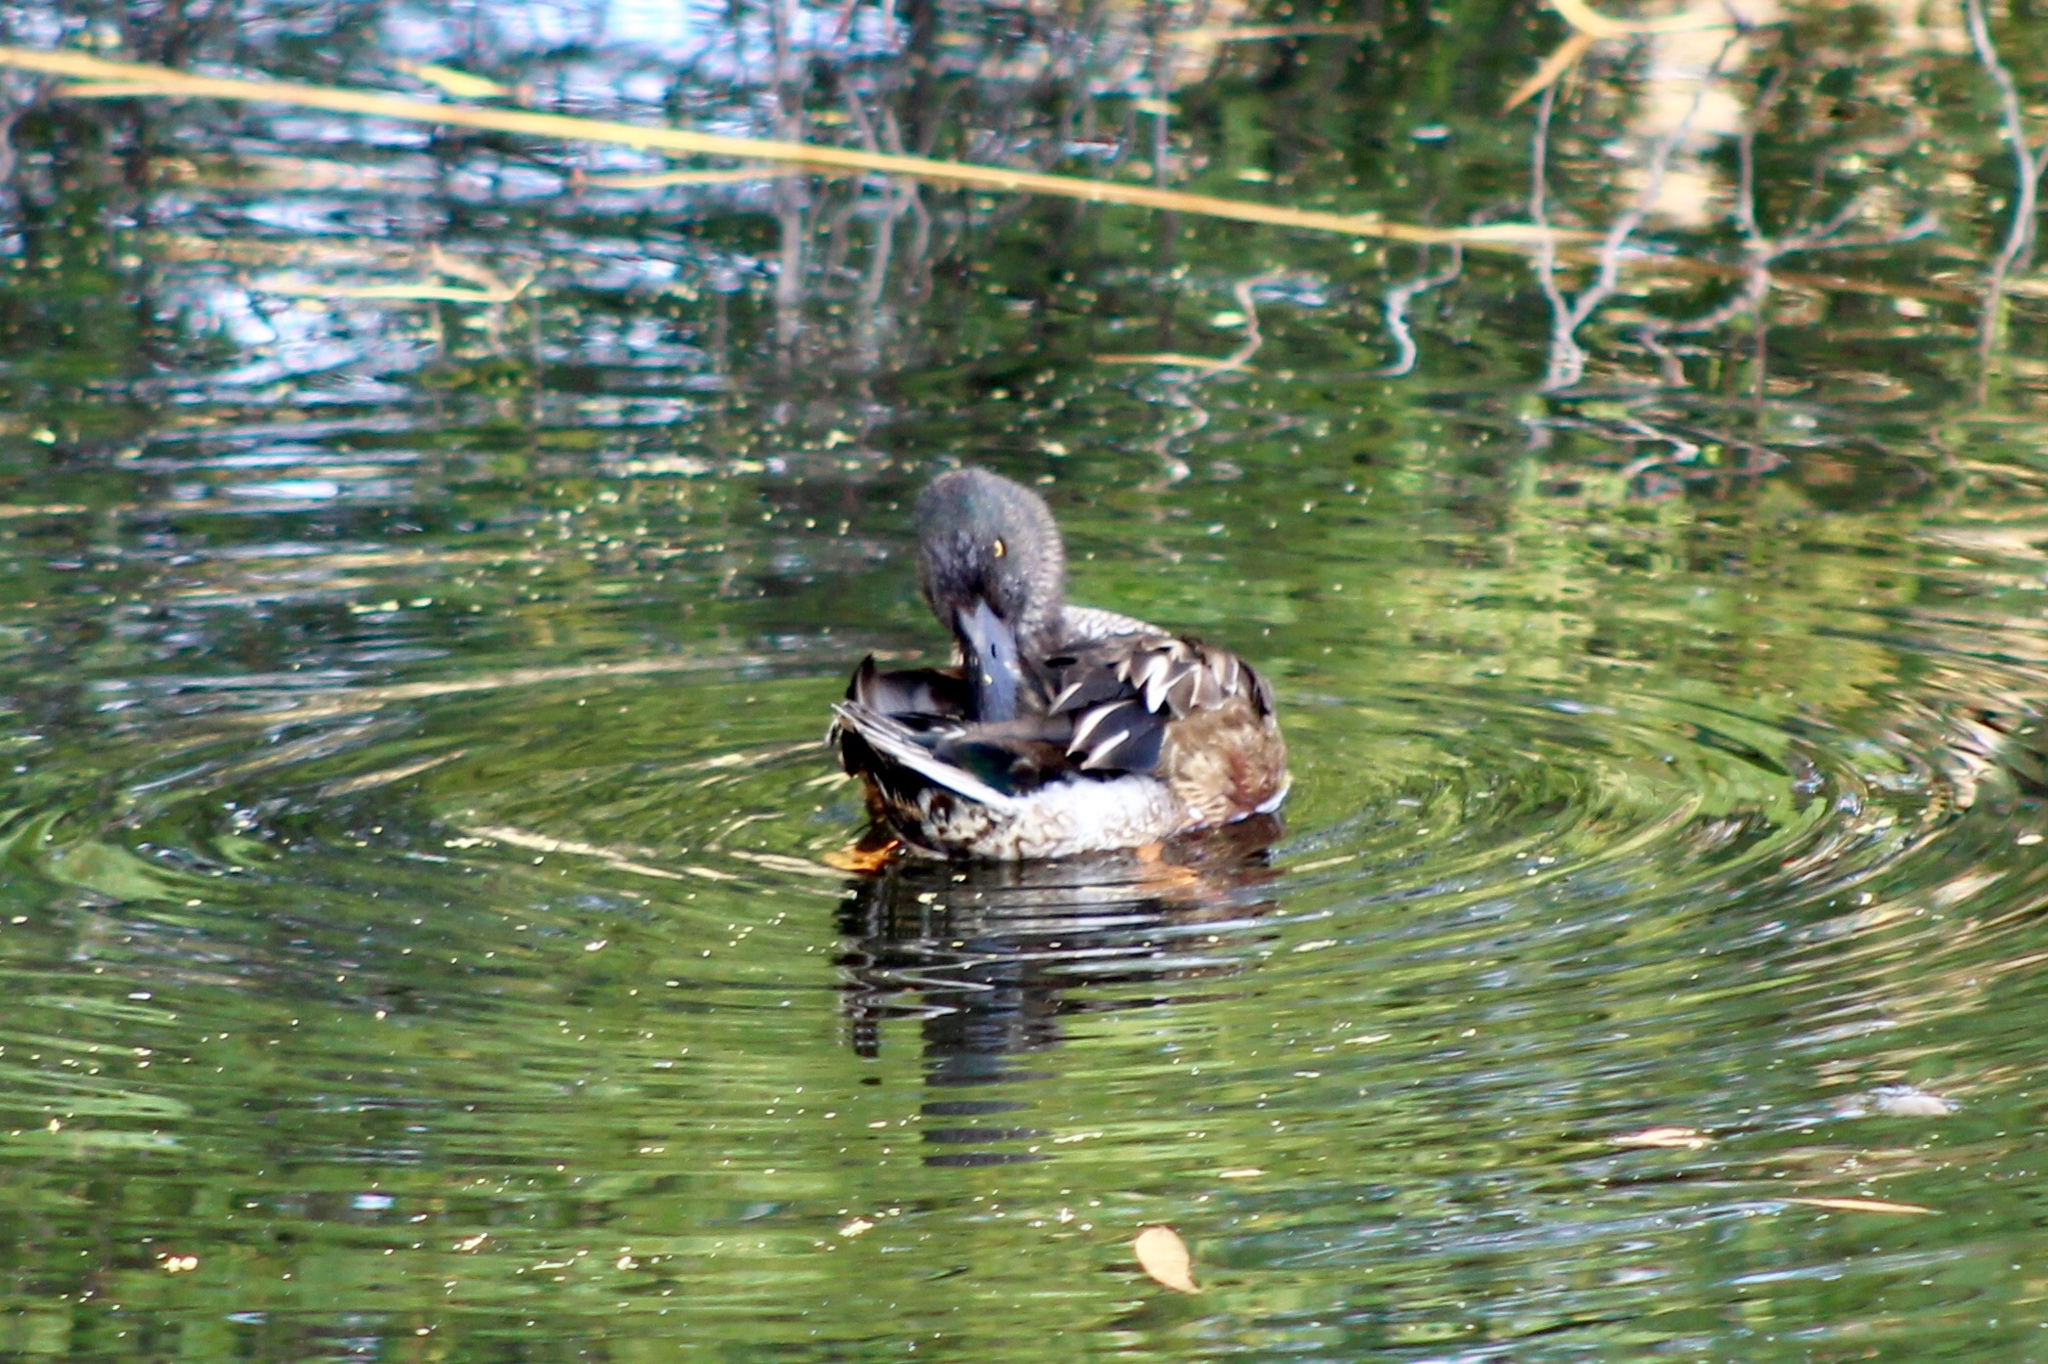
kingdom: Animalia
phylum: Chordata
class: Aves
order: Anseriformes
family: Anatidae
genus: Spatula
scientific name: Spatula clypeata
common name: Northern shoveler
